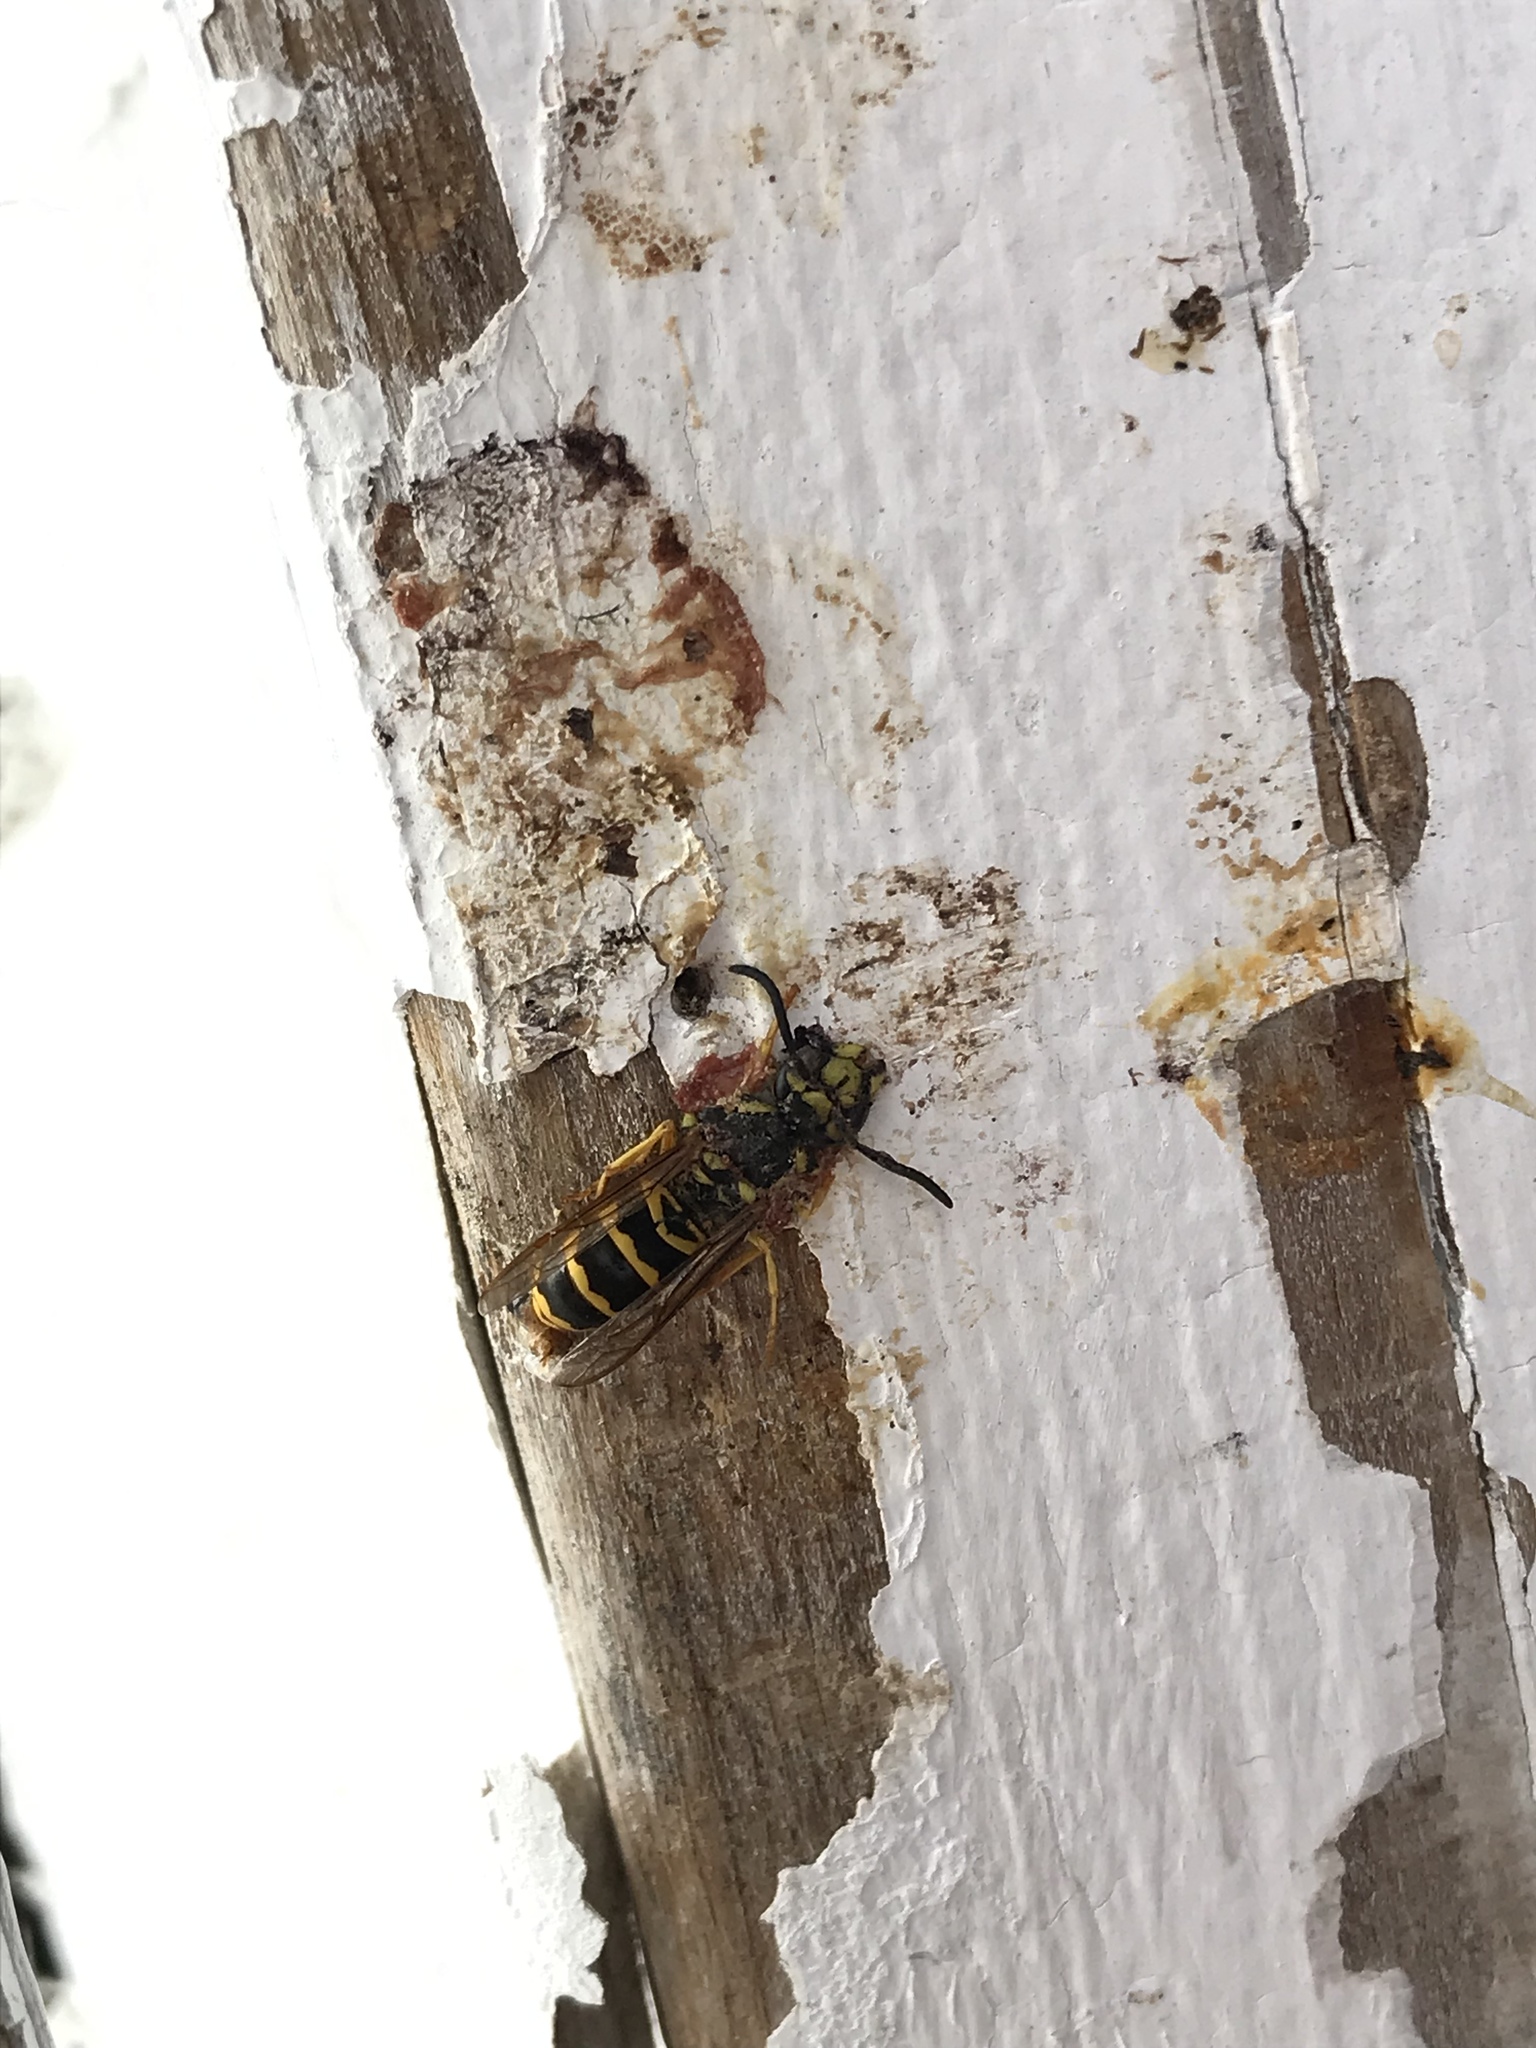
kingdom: Animalia
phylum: Arthropoda
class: Insecta
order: Hymenoptera
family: Vespidae
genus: Vespula
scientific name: Vespula maculifrons
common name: Eastern yellowjacket
